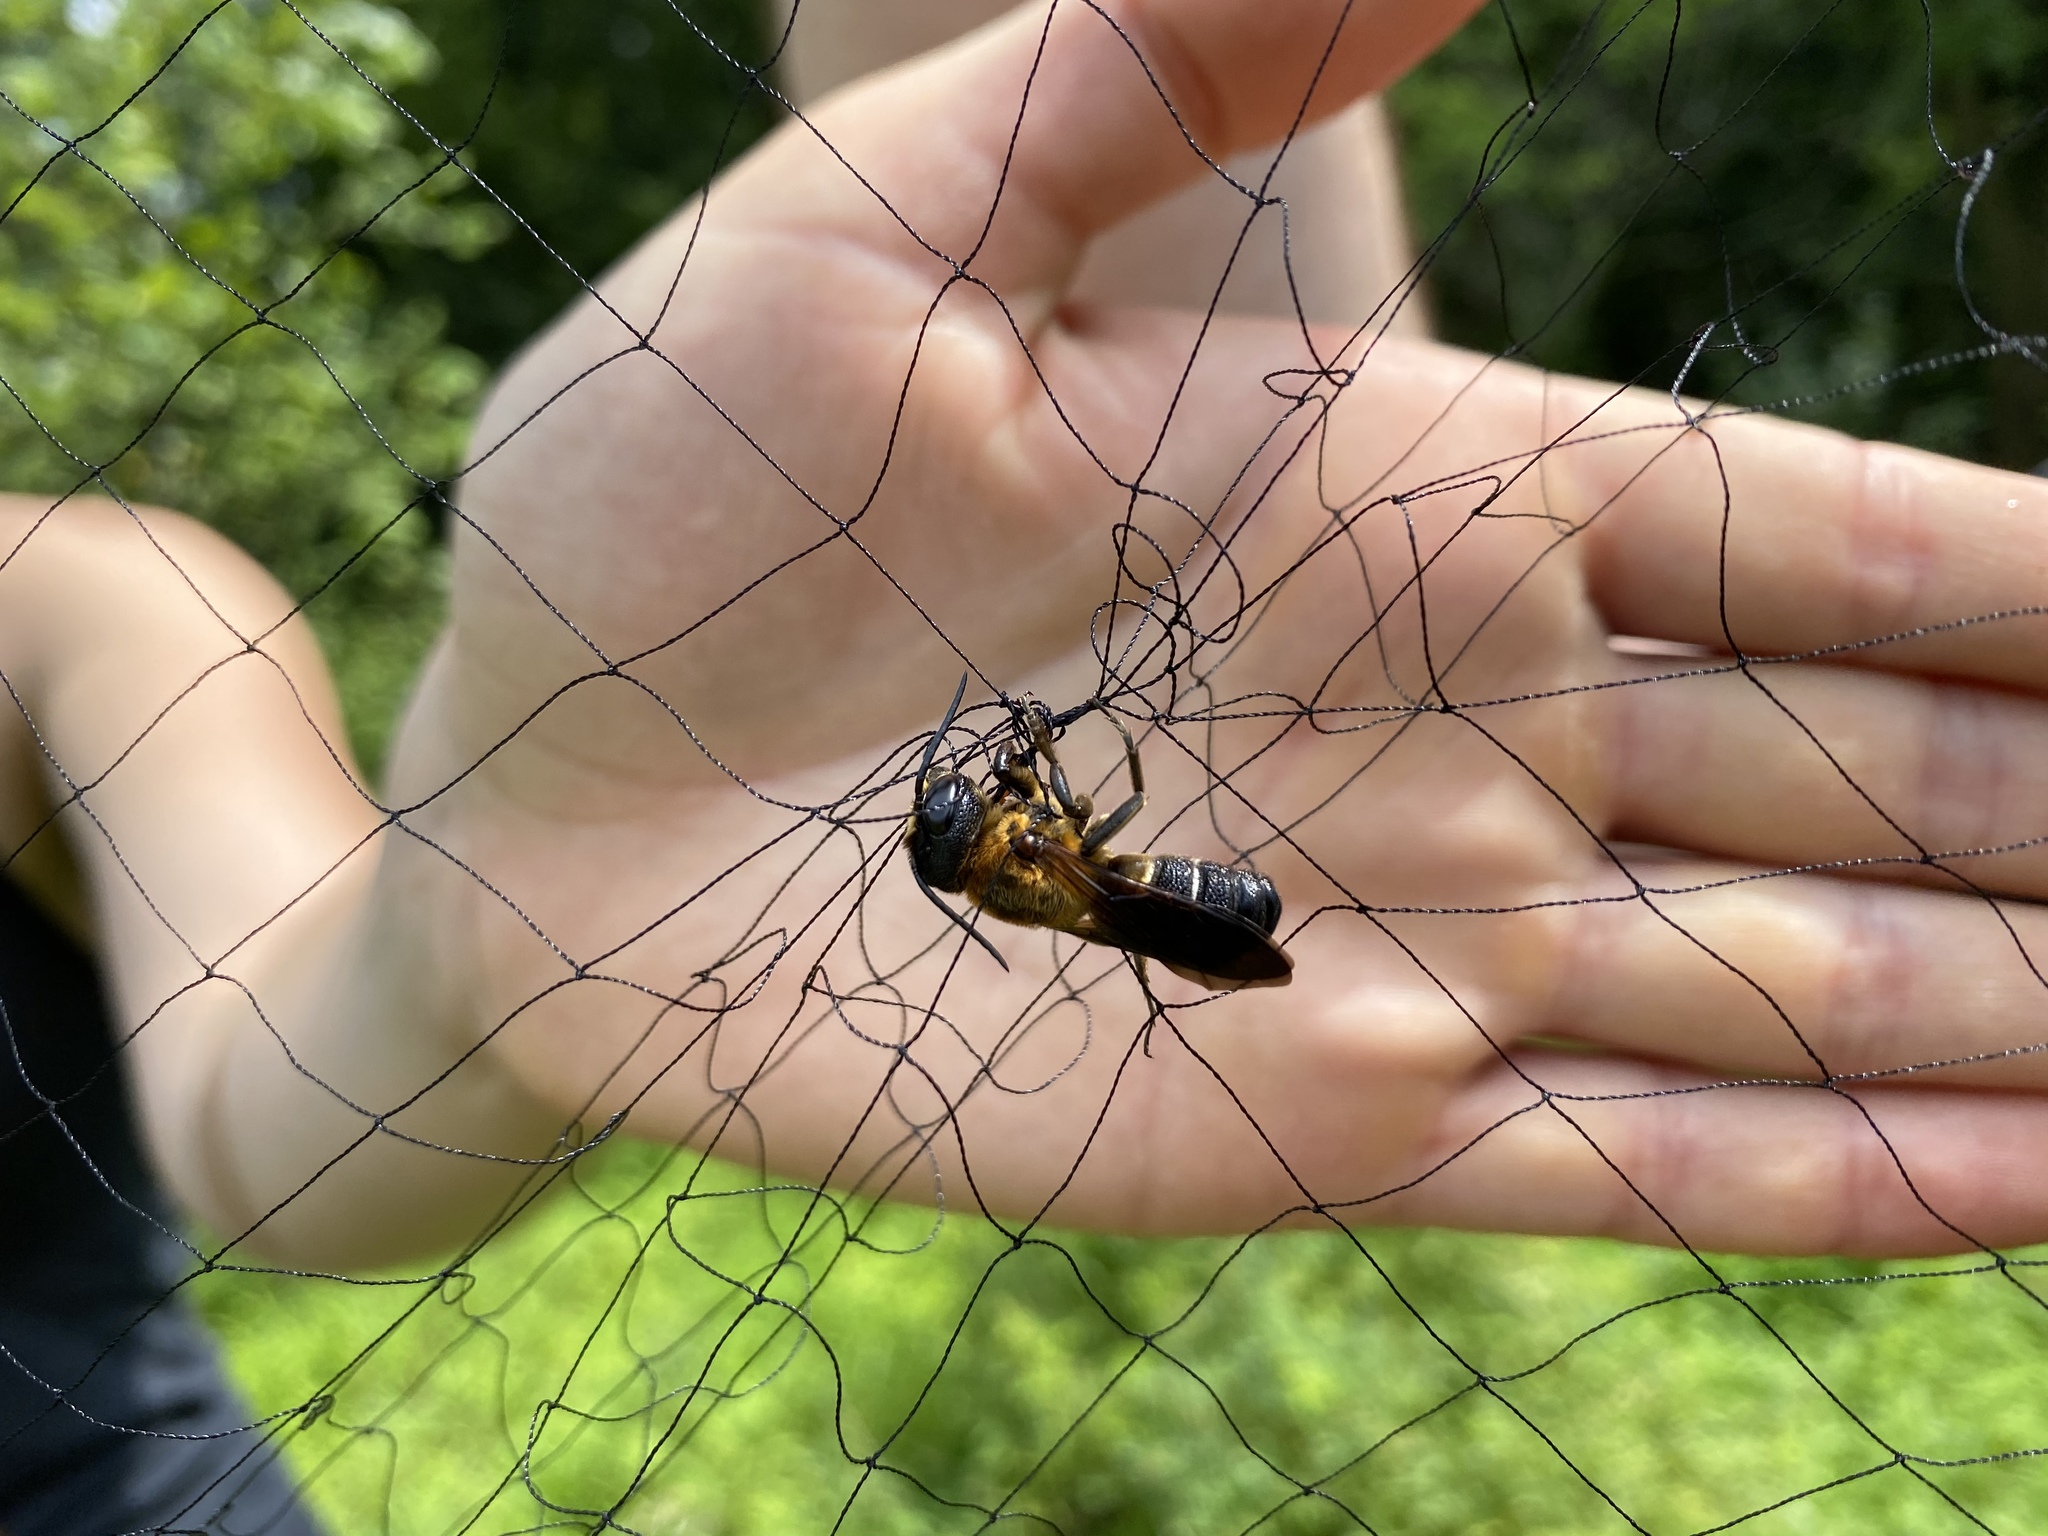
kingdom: Animalia
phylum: Arthropoda
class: Insecta
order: Hymenoptera
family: Megachilidae
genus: Megachile
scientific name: Megachile sculpturalis
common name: Sculptured resin bee
